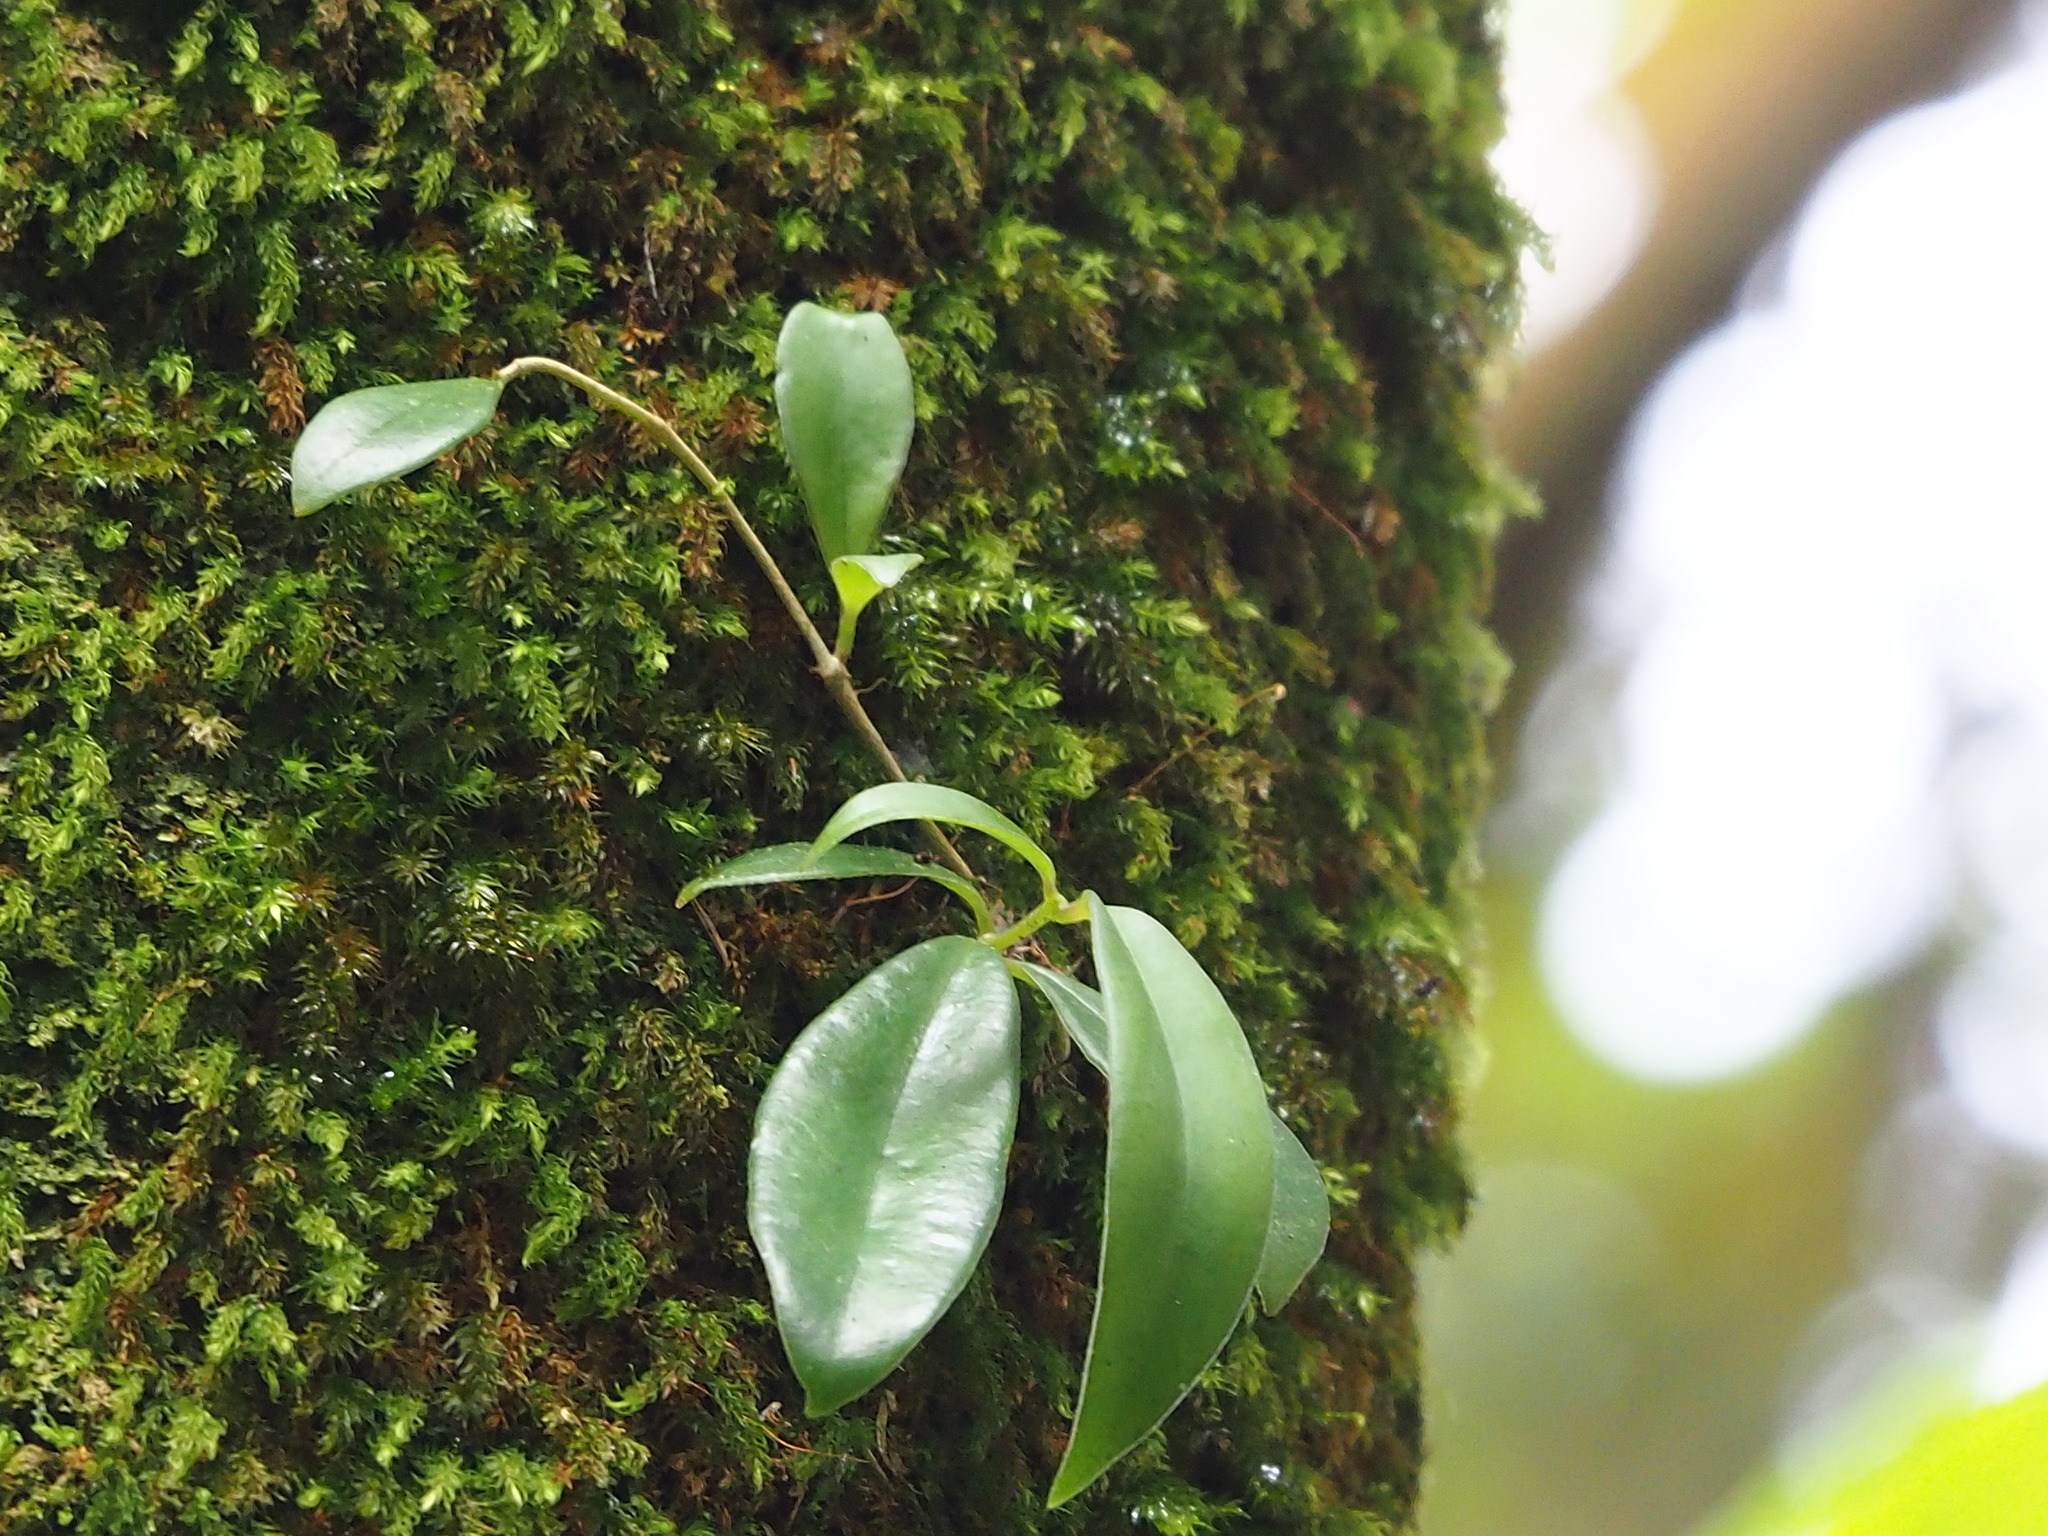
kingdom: Plantae
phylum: Tracheophyta
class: Magnoliopsida
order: Lamiales
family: Gesneriaceae
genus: Aeschynanthus
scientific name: Aeschynanthus acuminatus
